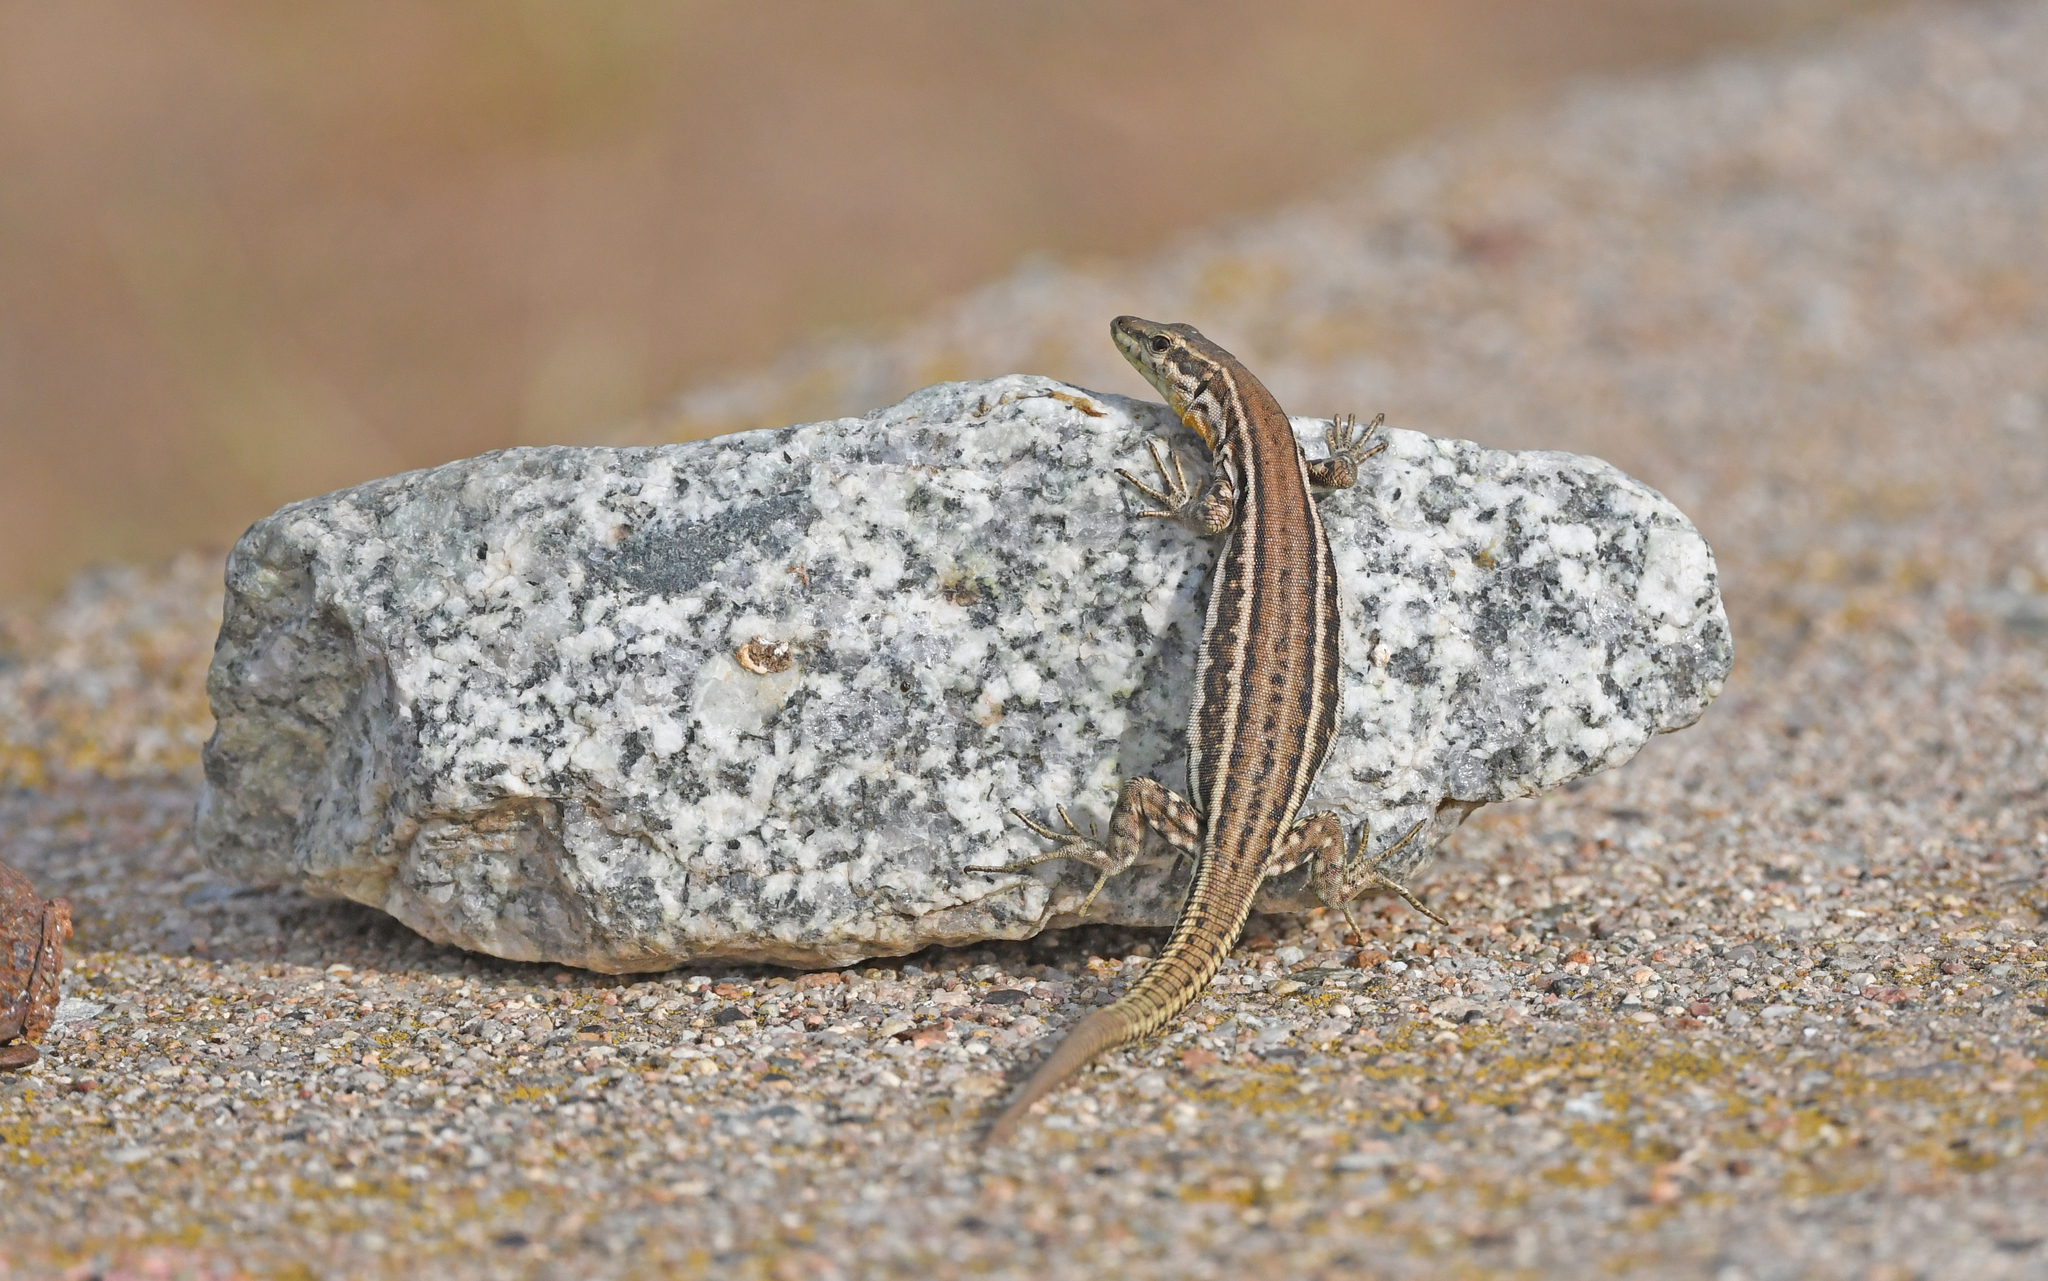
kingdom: Animalia
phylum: Chordata
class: Squamata
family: Lacertidae
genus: Podarcis
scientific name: Podarcis tiliguerta
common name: Tyrrhenian wall lizard
